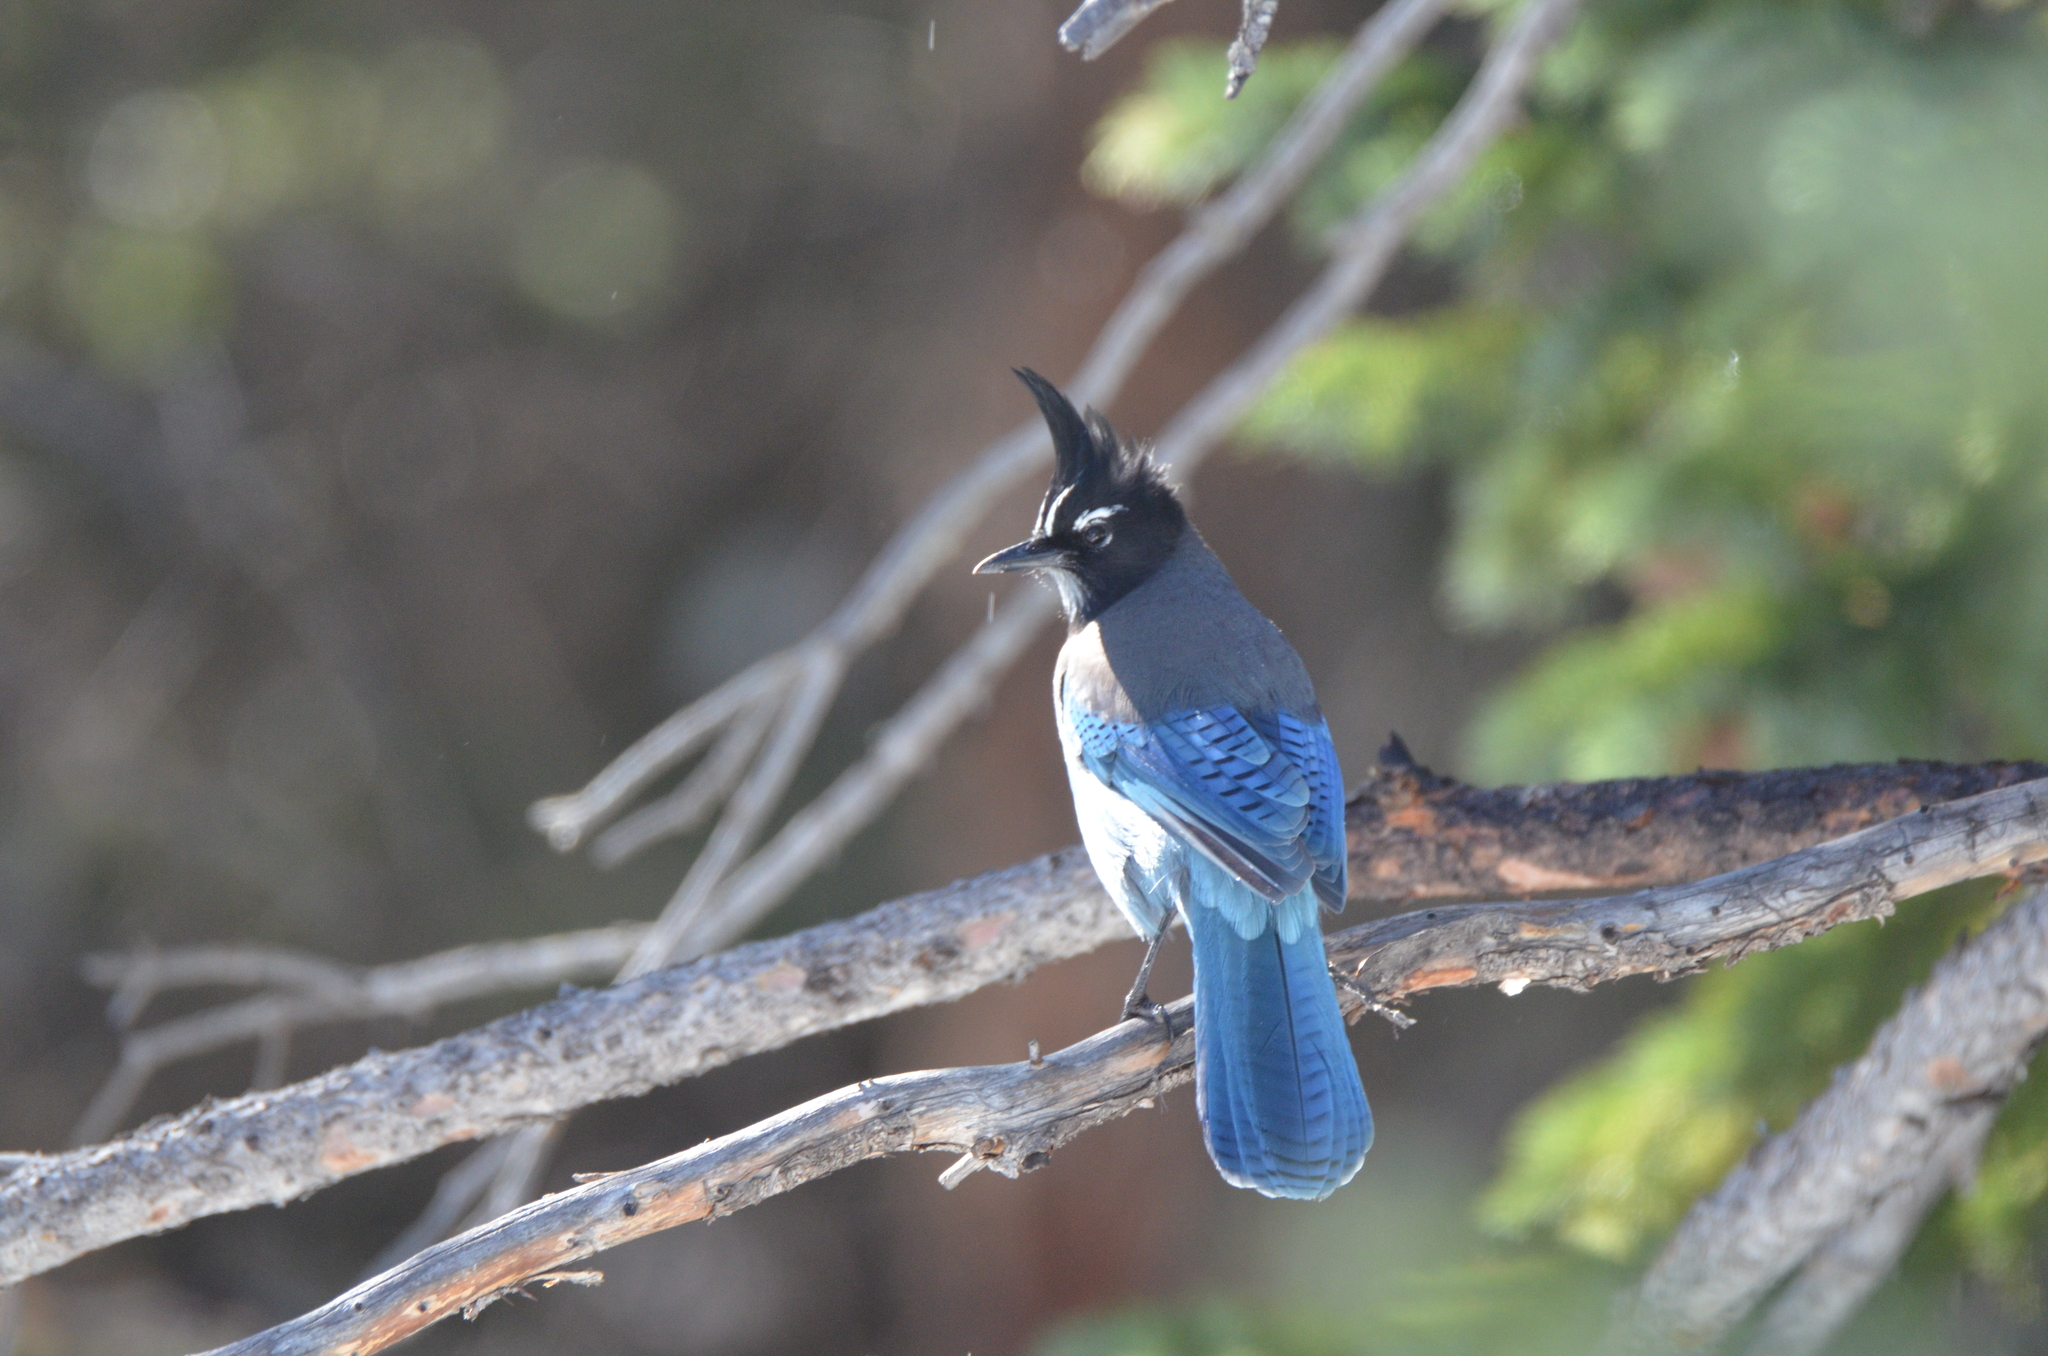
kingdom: Animalia
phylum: Chordata
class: Aves
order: Passeriformes
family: Corvidae
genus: Cyanocitta
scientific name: Cyanocitta stelleri
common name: Steller's jay
